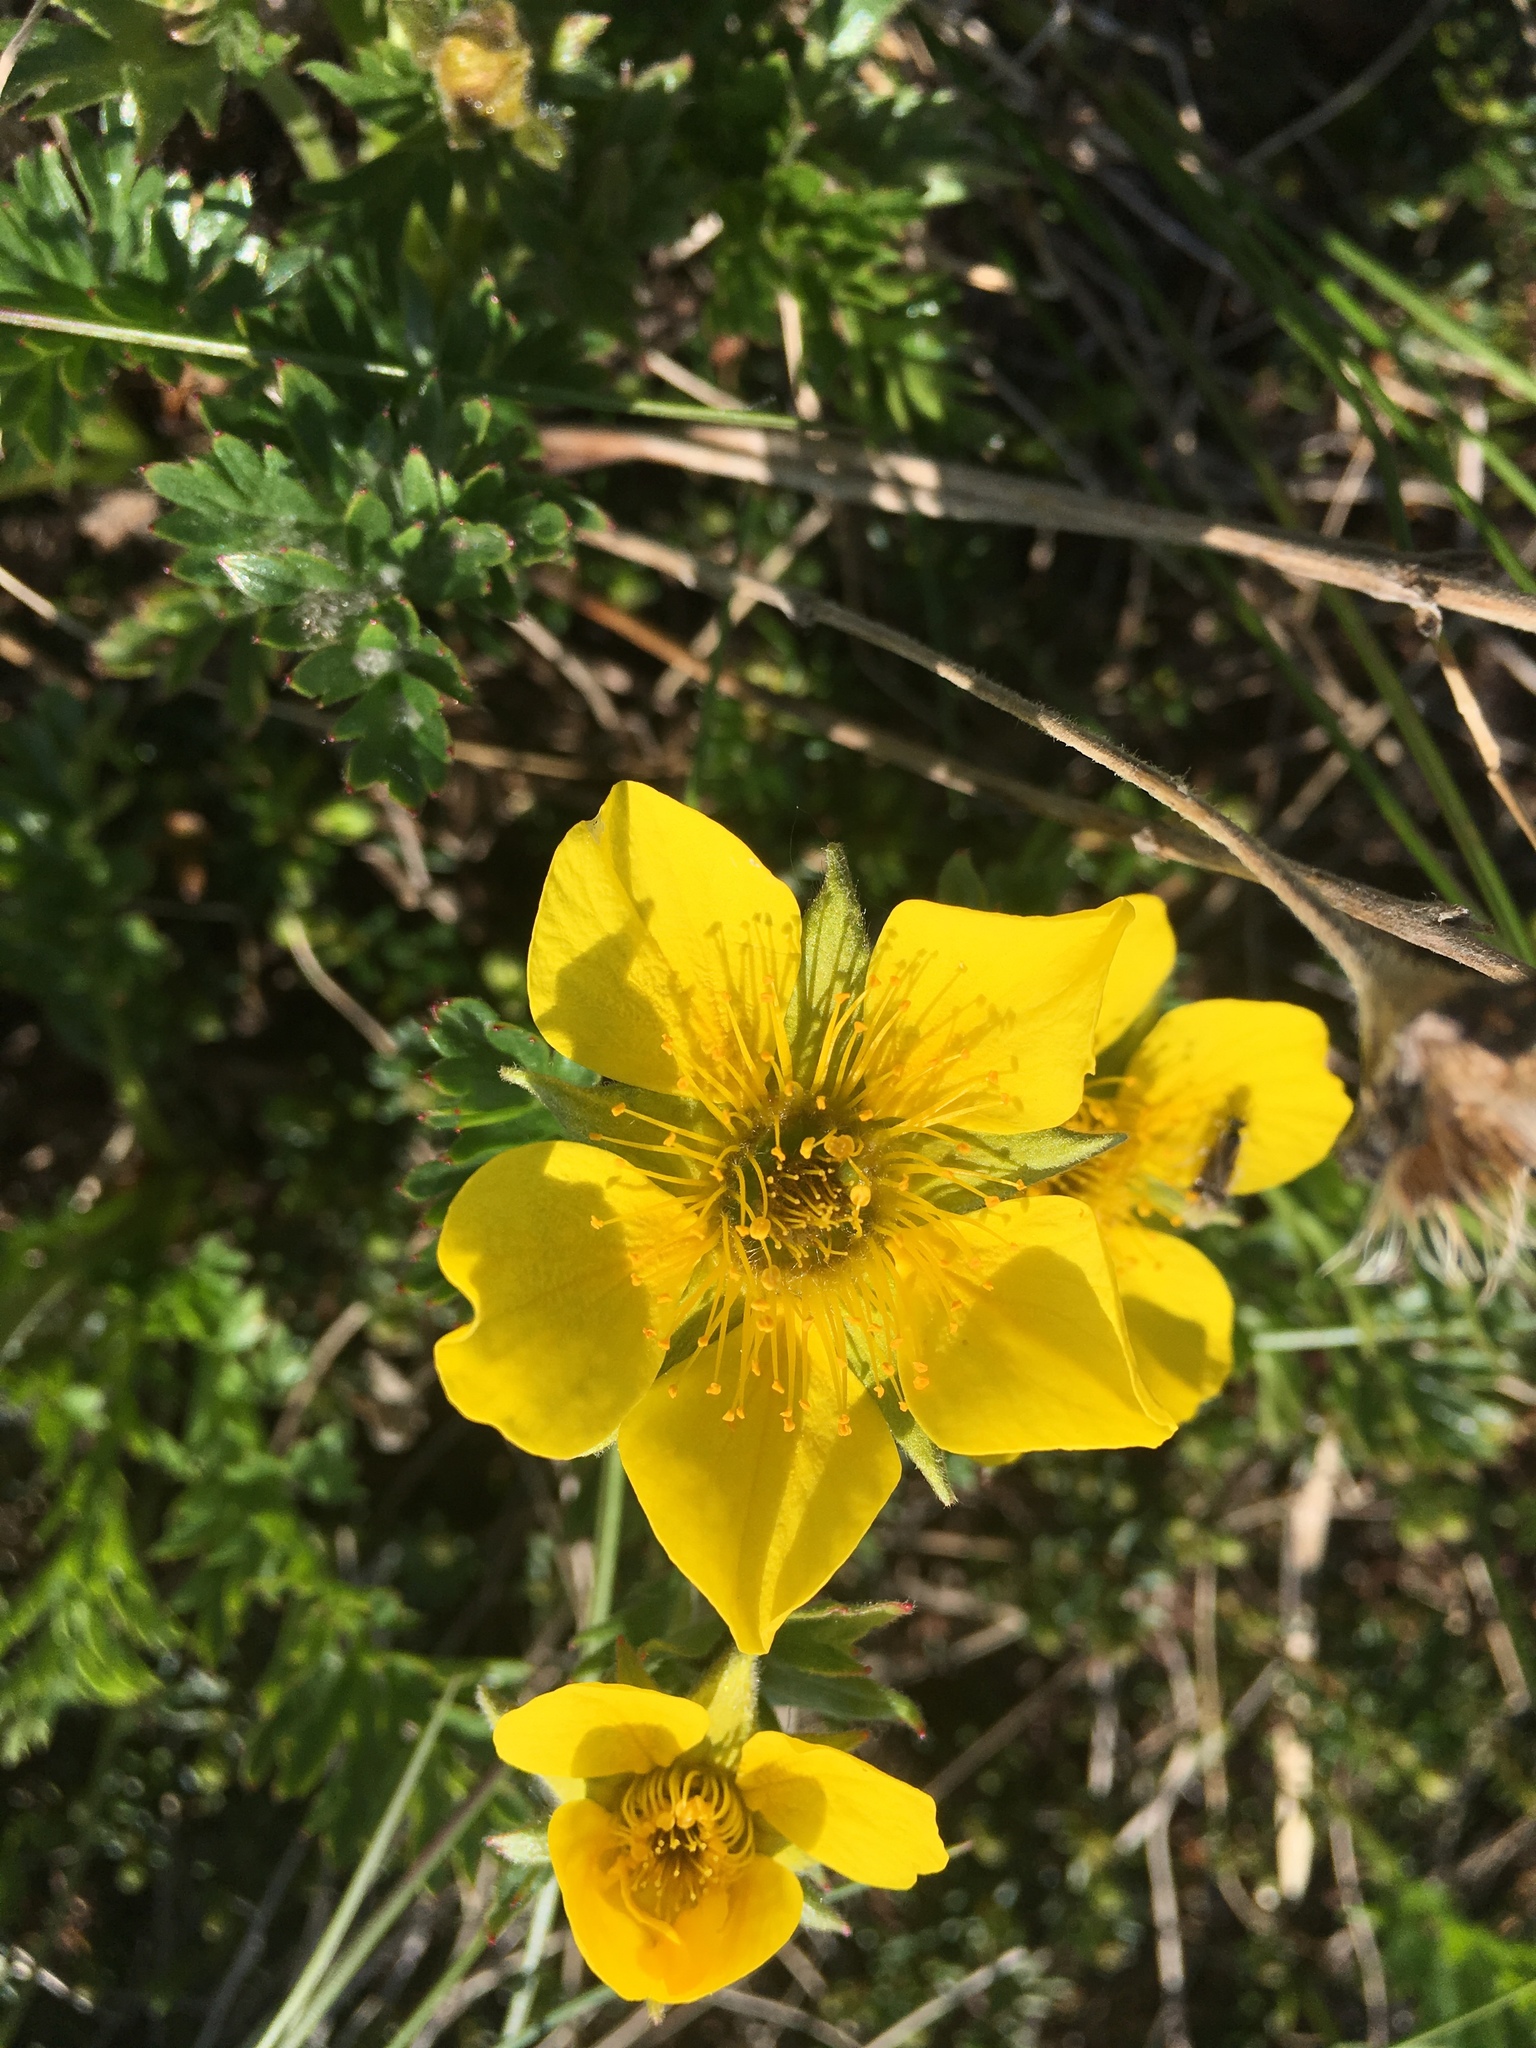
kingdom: Plantae
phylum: Tracheophyta
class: Magnoliopsida
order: Rosales
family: Rosaceae
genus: Dasiphora
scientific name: Dasiphora fruticosa
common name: Shrubby cinquefoil
